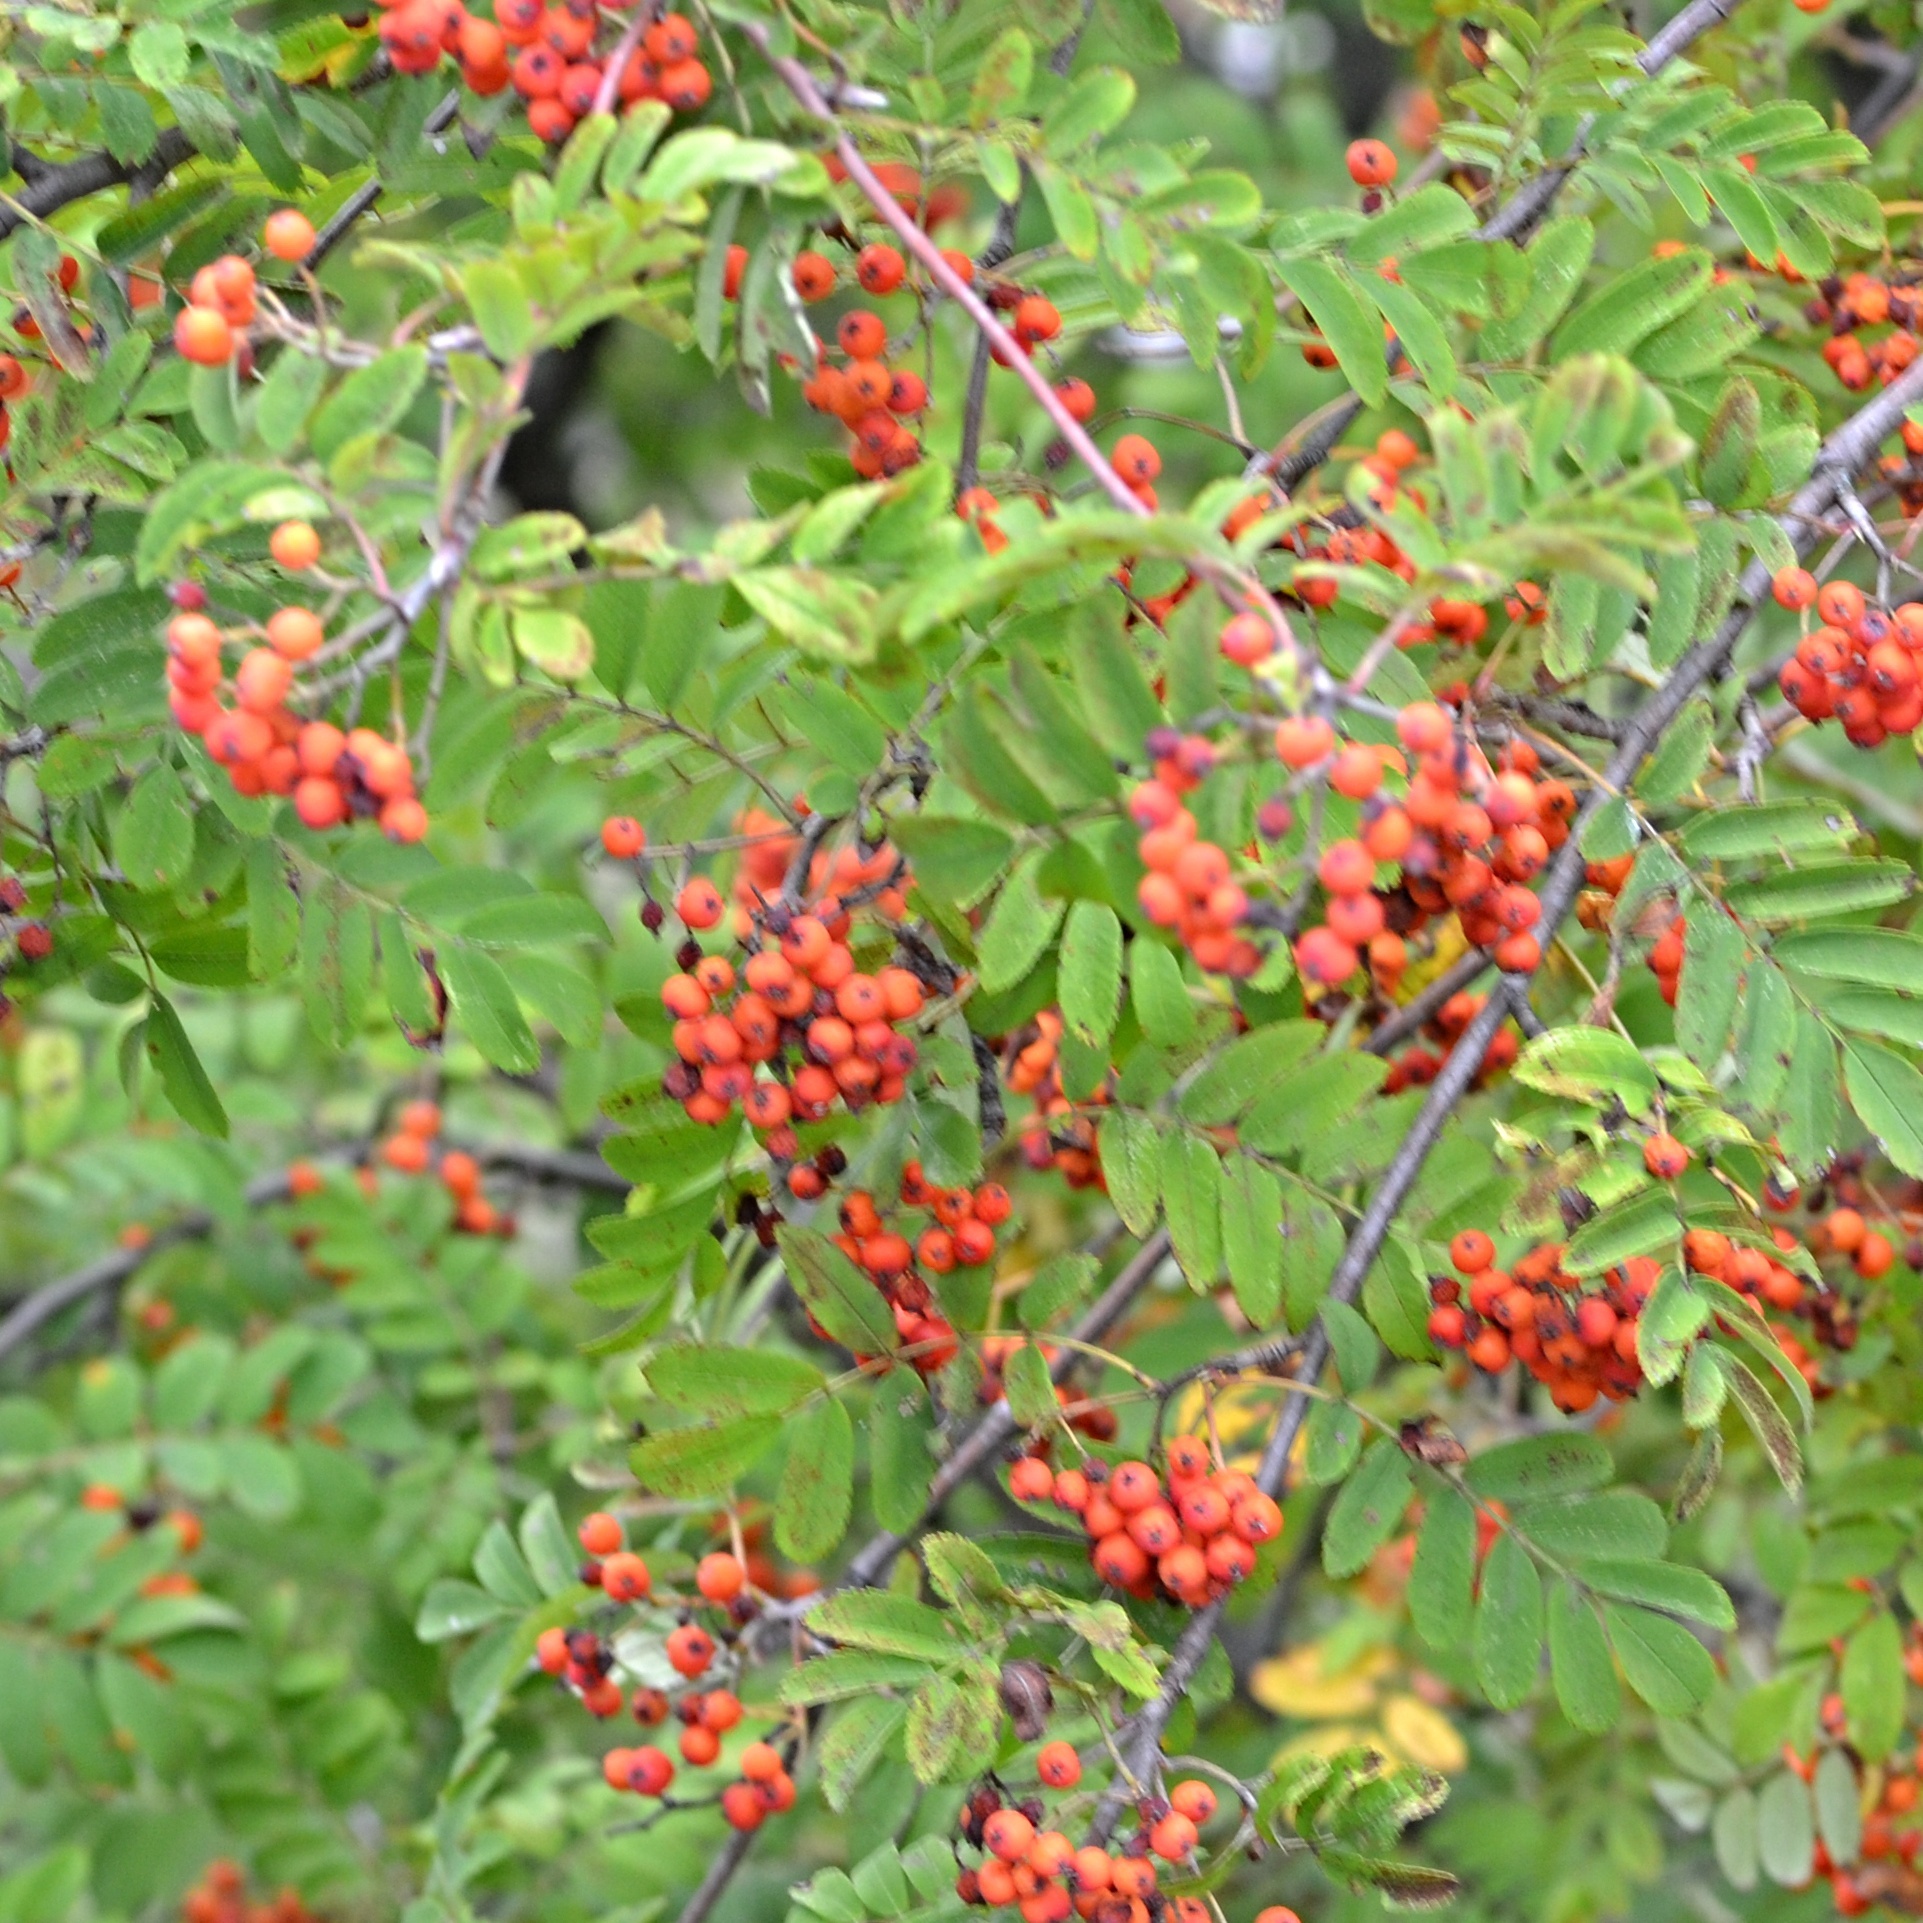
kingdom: Plantae
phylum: Tracheophyta
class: Magnoliopsida
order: Rosales
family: Rosaceae
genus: Sorbus
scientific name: Sorbus aucuparia
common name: Rowan
